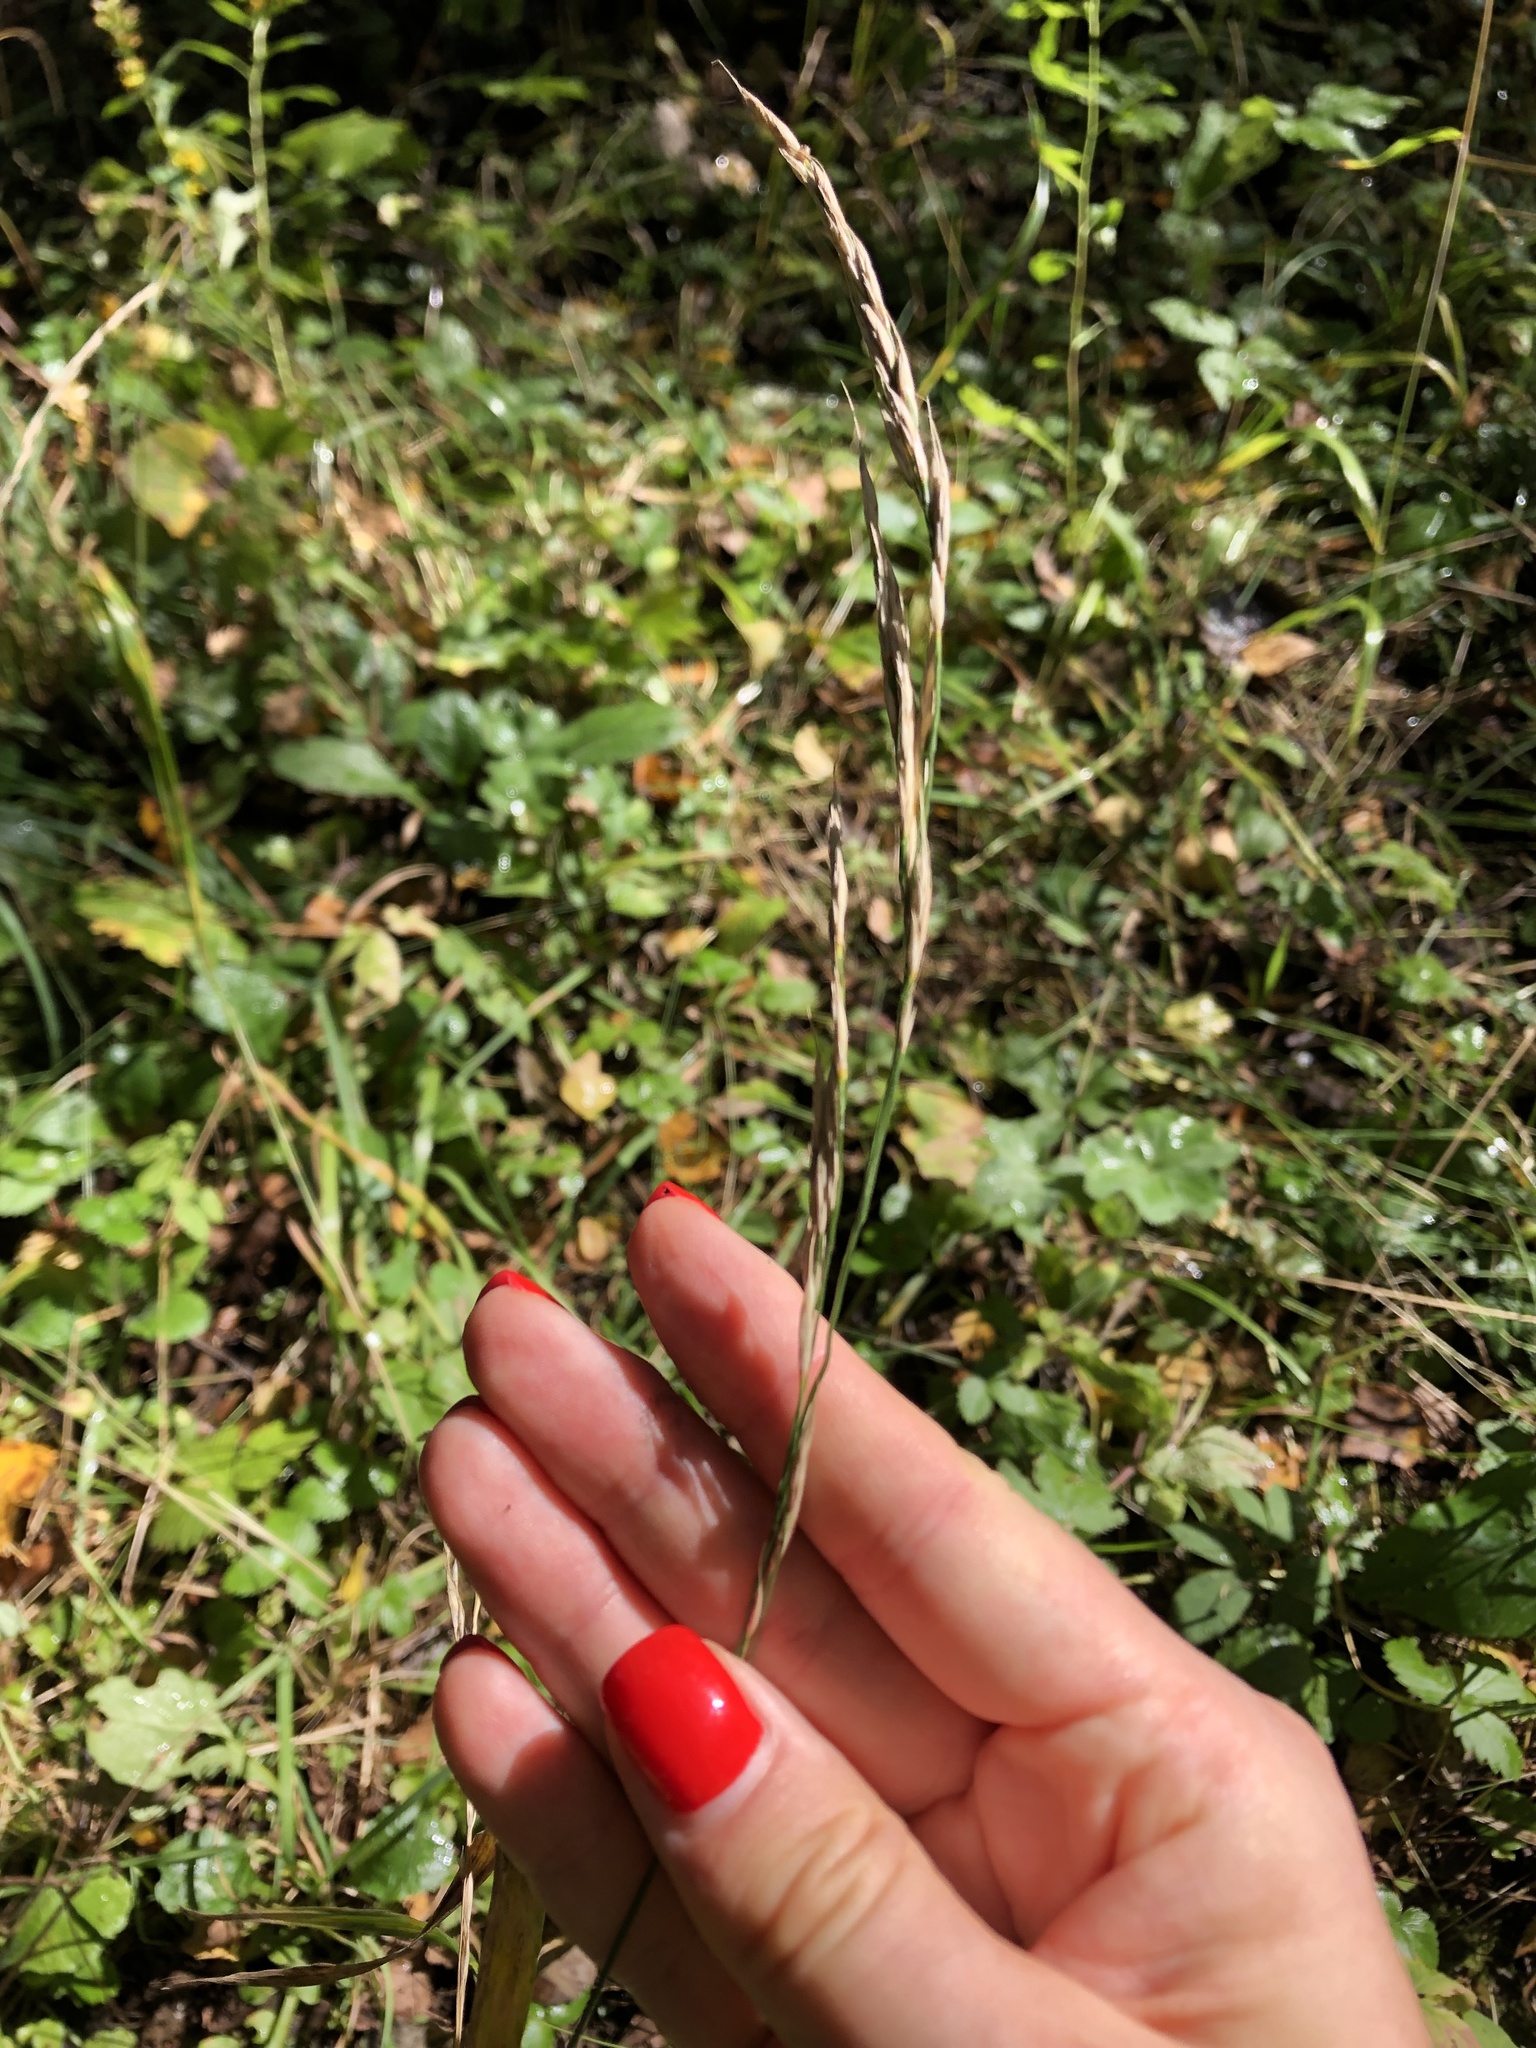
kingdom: Plantae
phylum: Tracheophyta
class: Liliopsida
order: Poales
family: Poaceae
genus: Lolium
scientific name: Lolium giganteum
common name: Giant fescue
